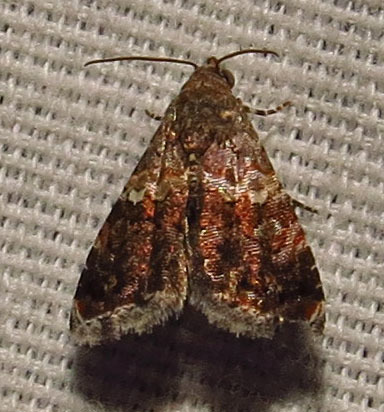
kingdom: Animalia
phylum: Arthropoda
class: Insecta
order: Lepidoptera
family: Noctuidae
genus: Tripudia
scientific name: Tripudia luxuriosa
